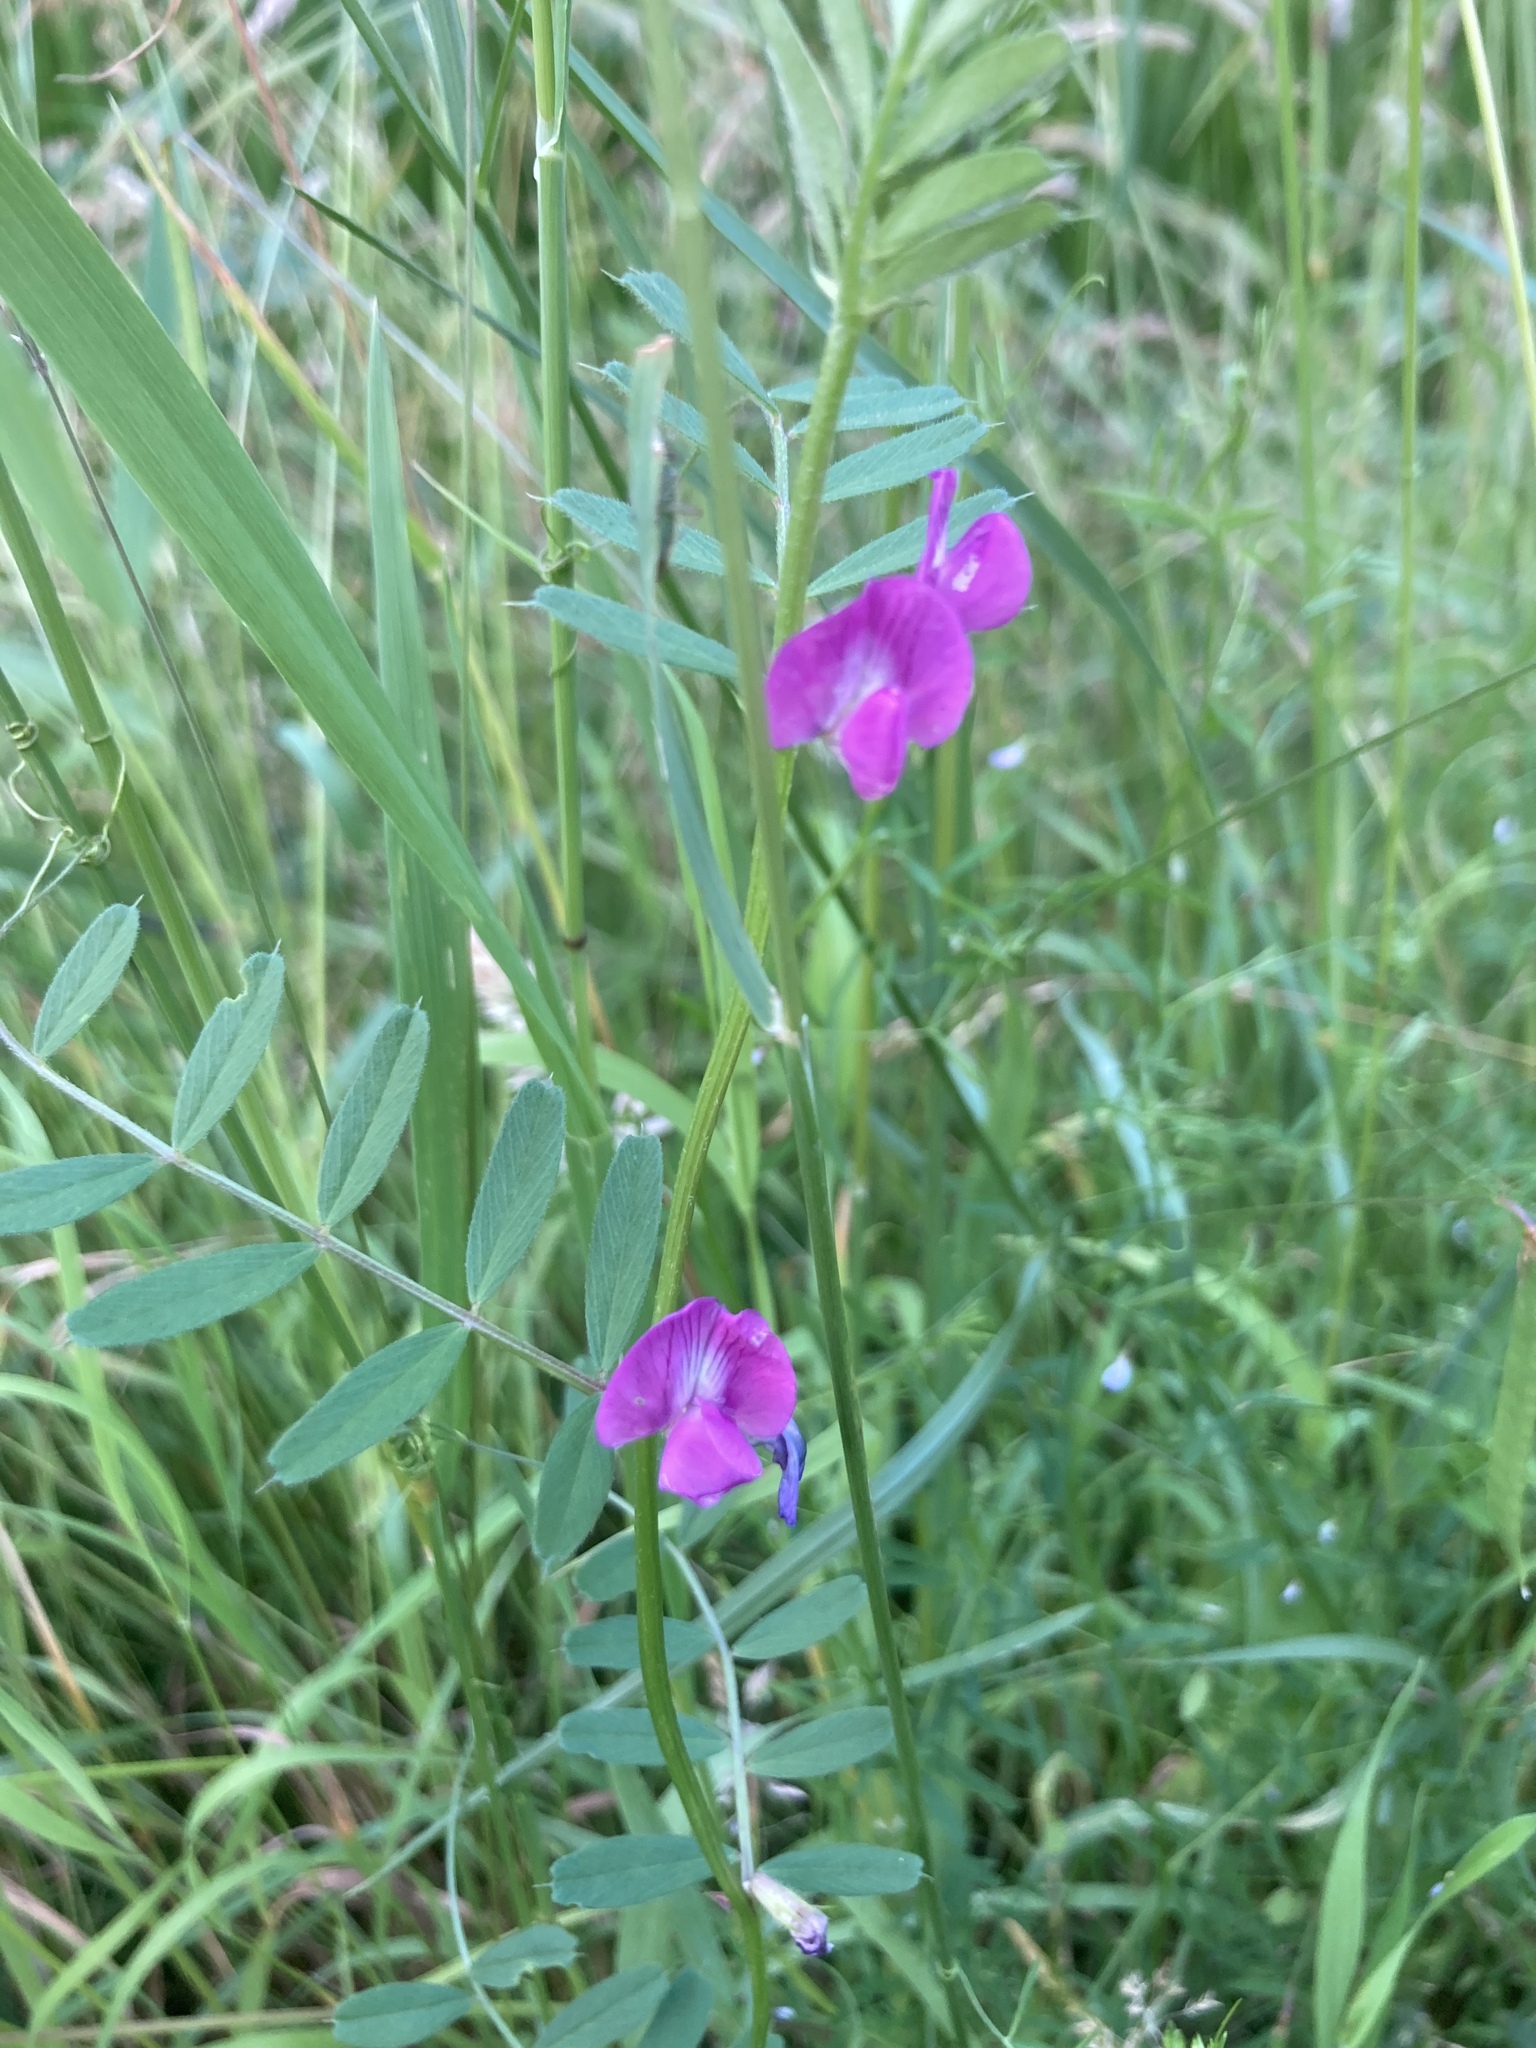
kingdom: Plantae
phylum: Tracheophyta
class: Magnoliopsida
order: Fabales
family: Fabaceae
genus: Vicia
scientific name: Vicia sativa
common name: Garden vetch
